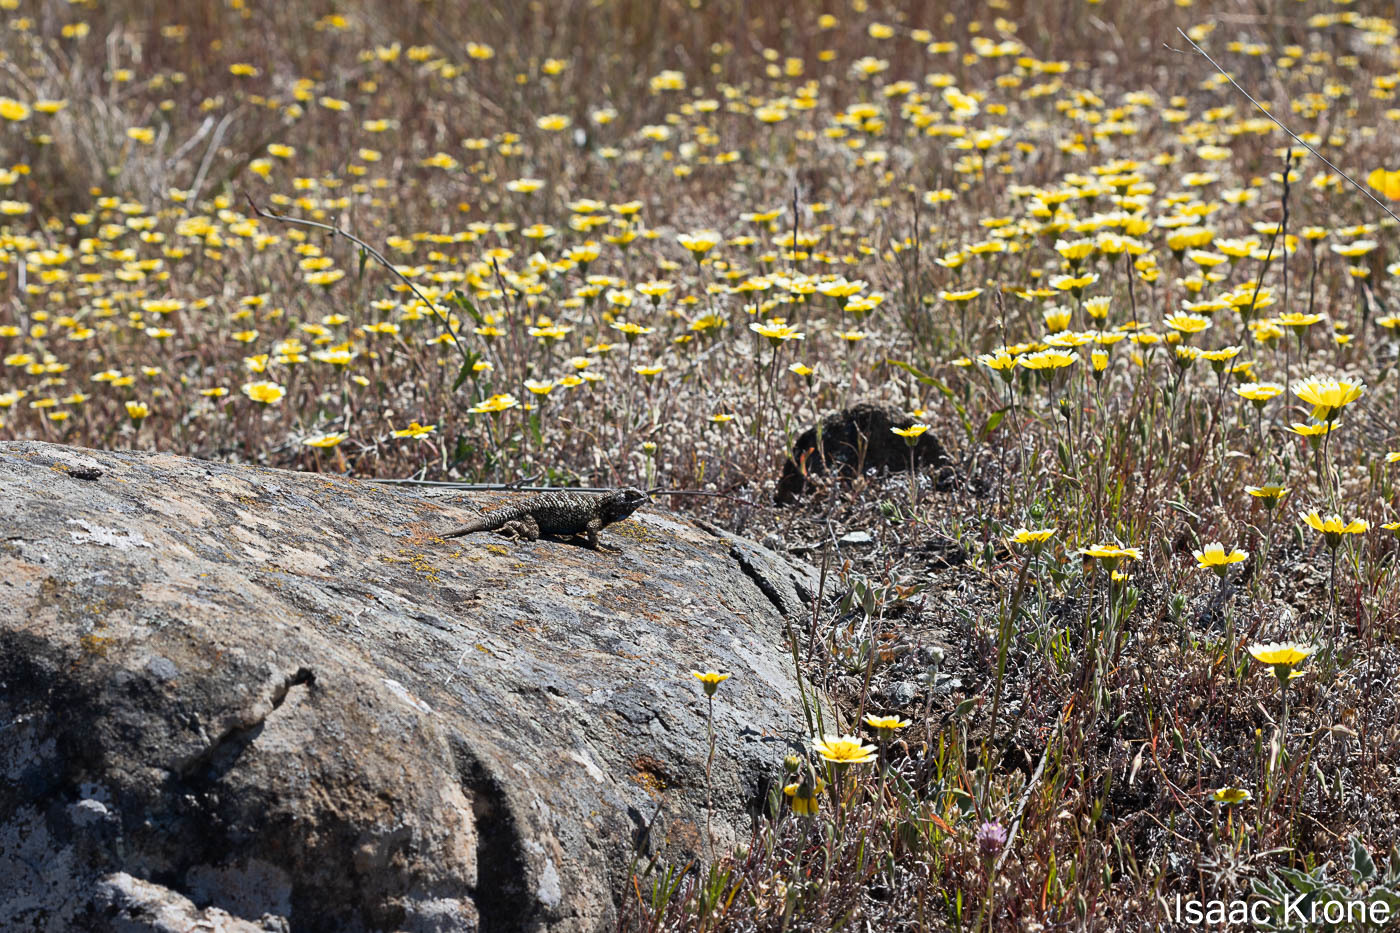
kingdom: Animalia
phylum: Chordata
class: Squamata
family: Phrynosomatidae
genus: Sceloporus
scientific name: Sceloporus occidentalis
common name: Western fence lizard
